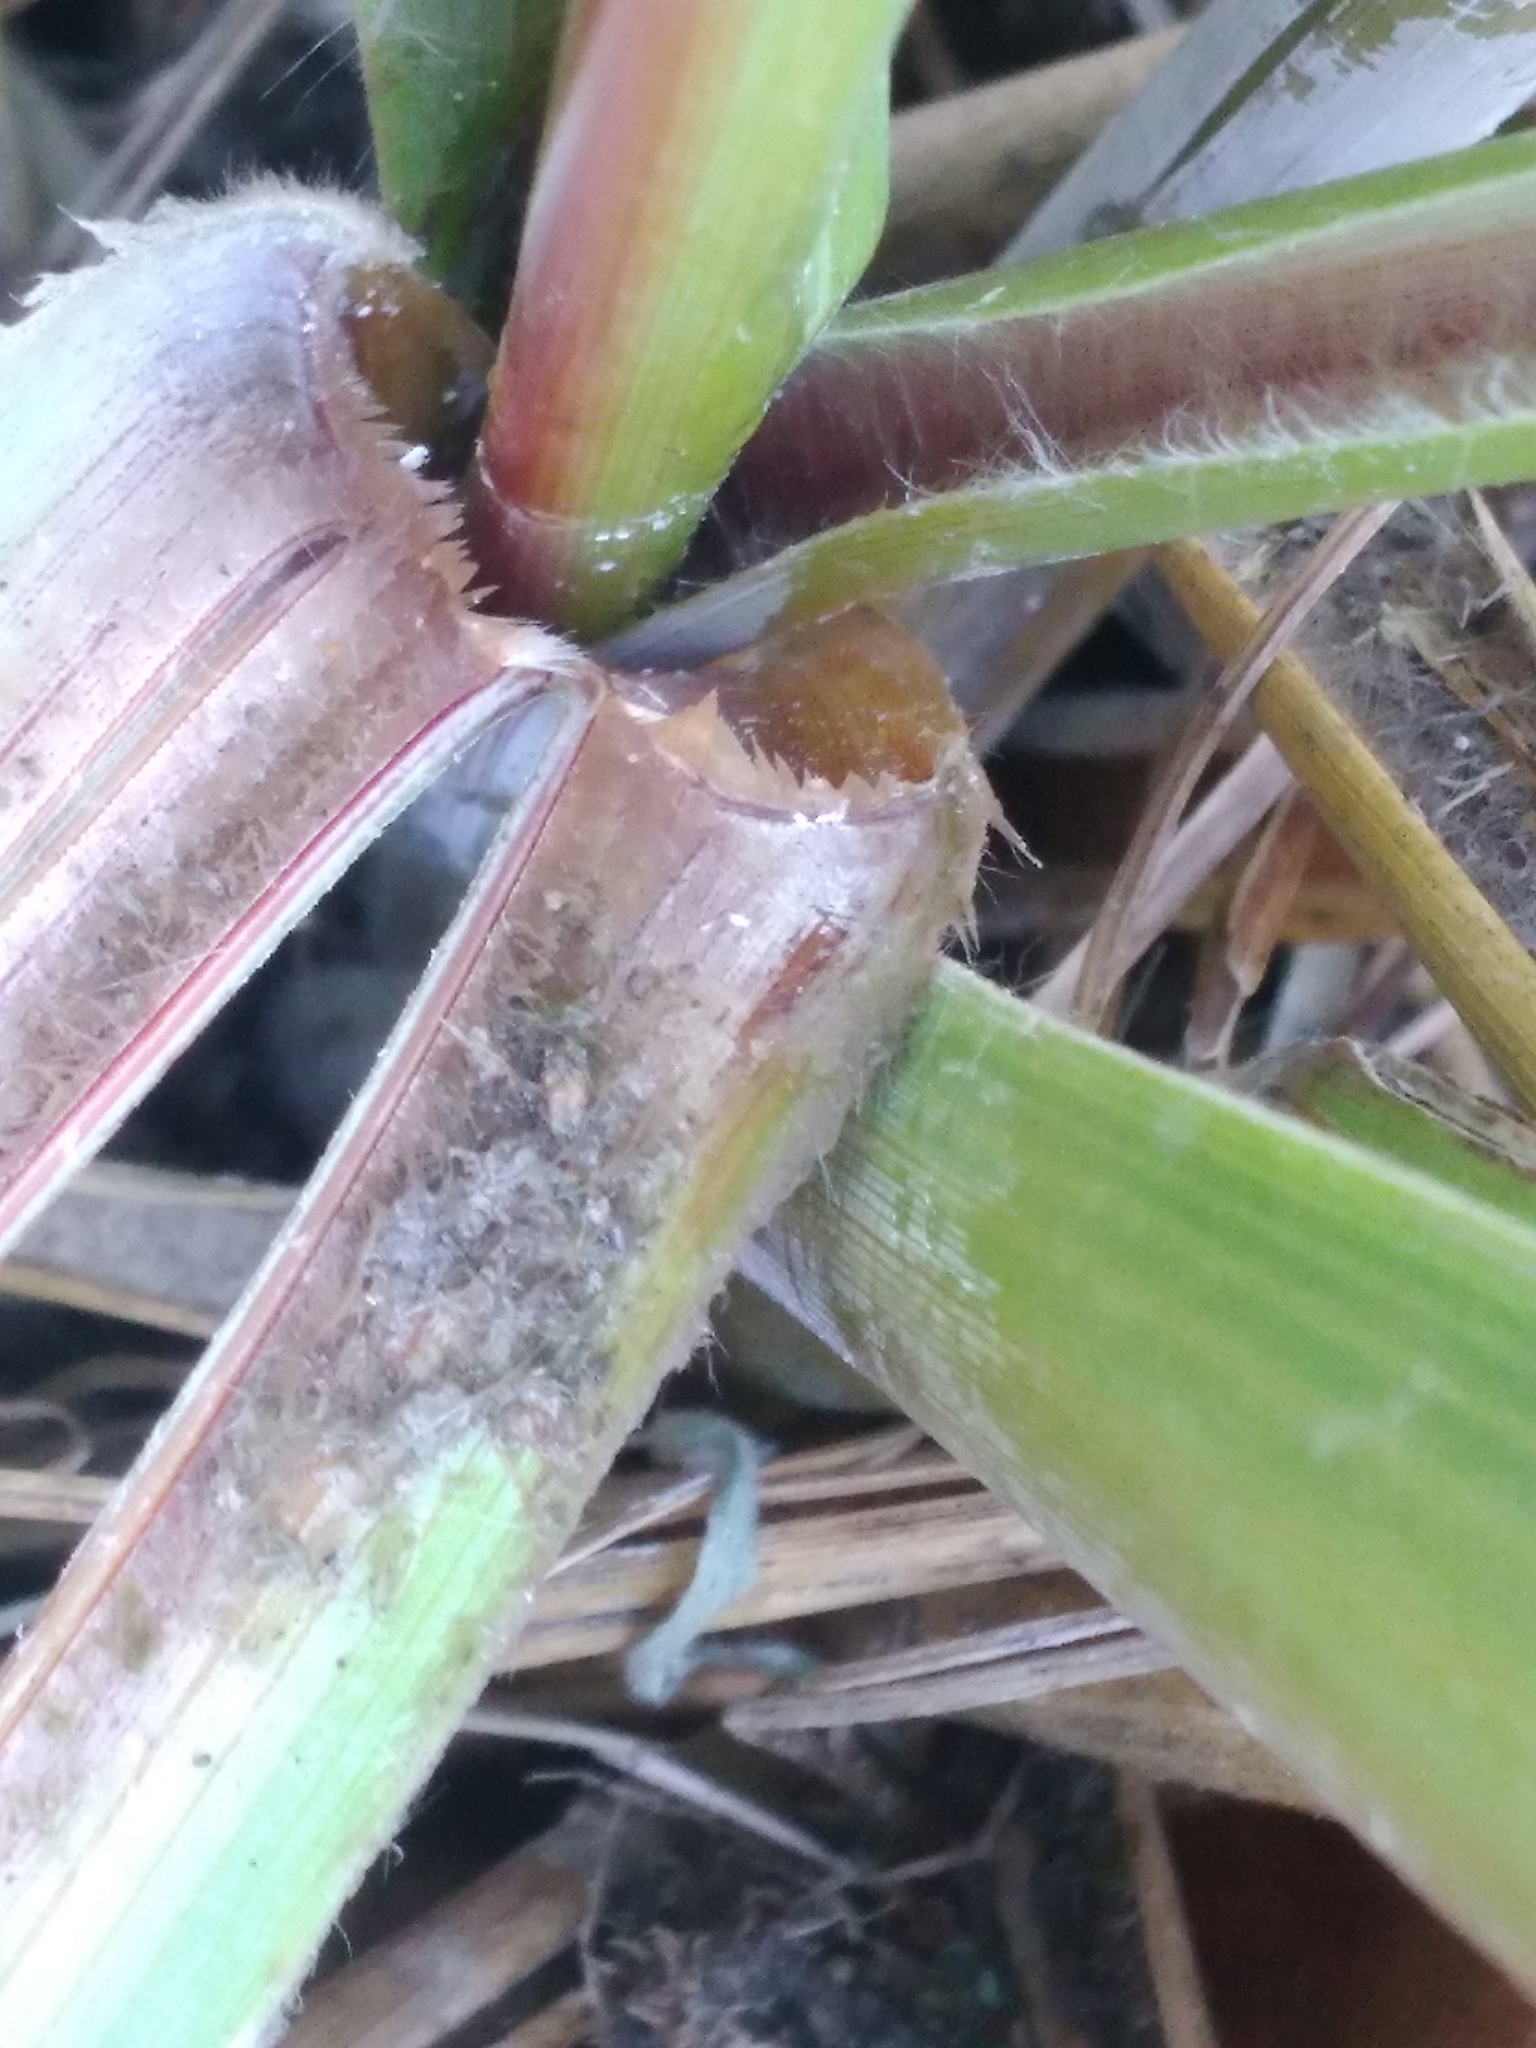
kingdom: Plantae
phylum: Tracheophyta
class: Liliopsida
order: Poales
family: Poaceae
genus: Austroderia
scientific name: Austroderia toetoe
